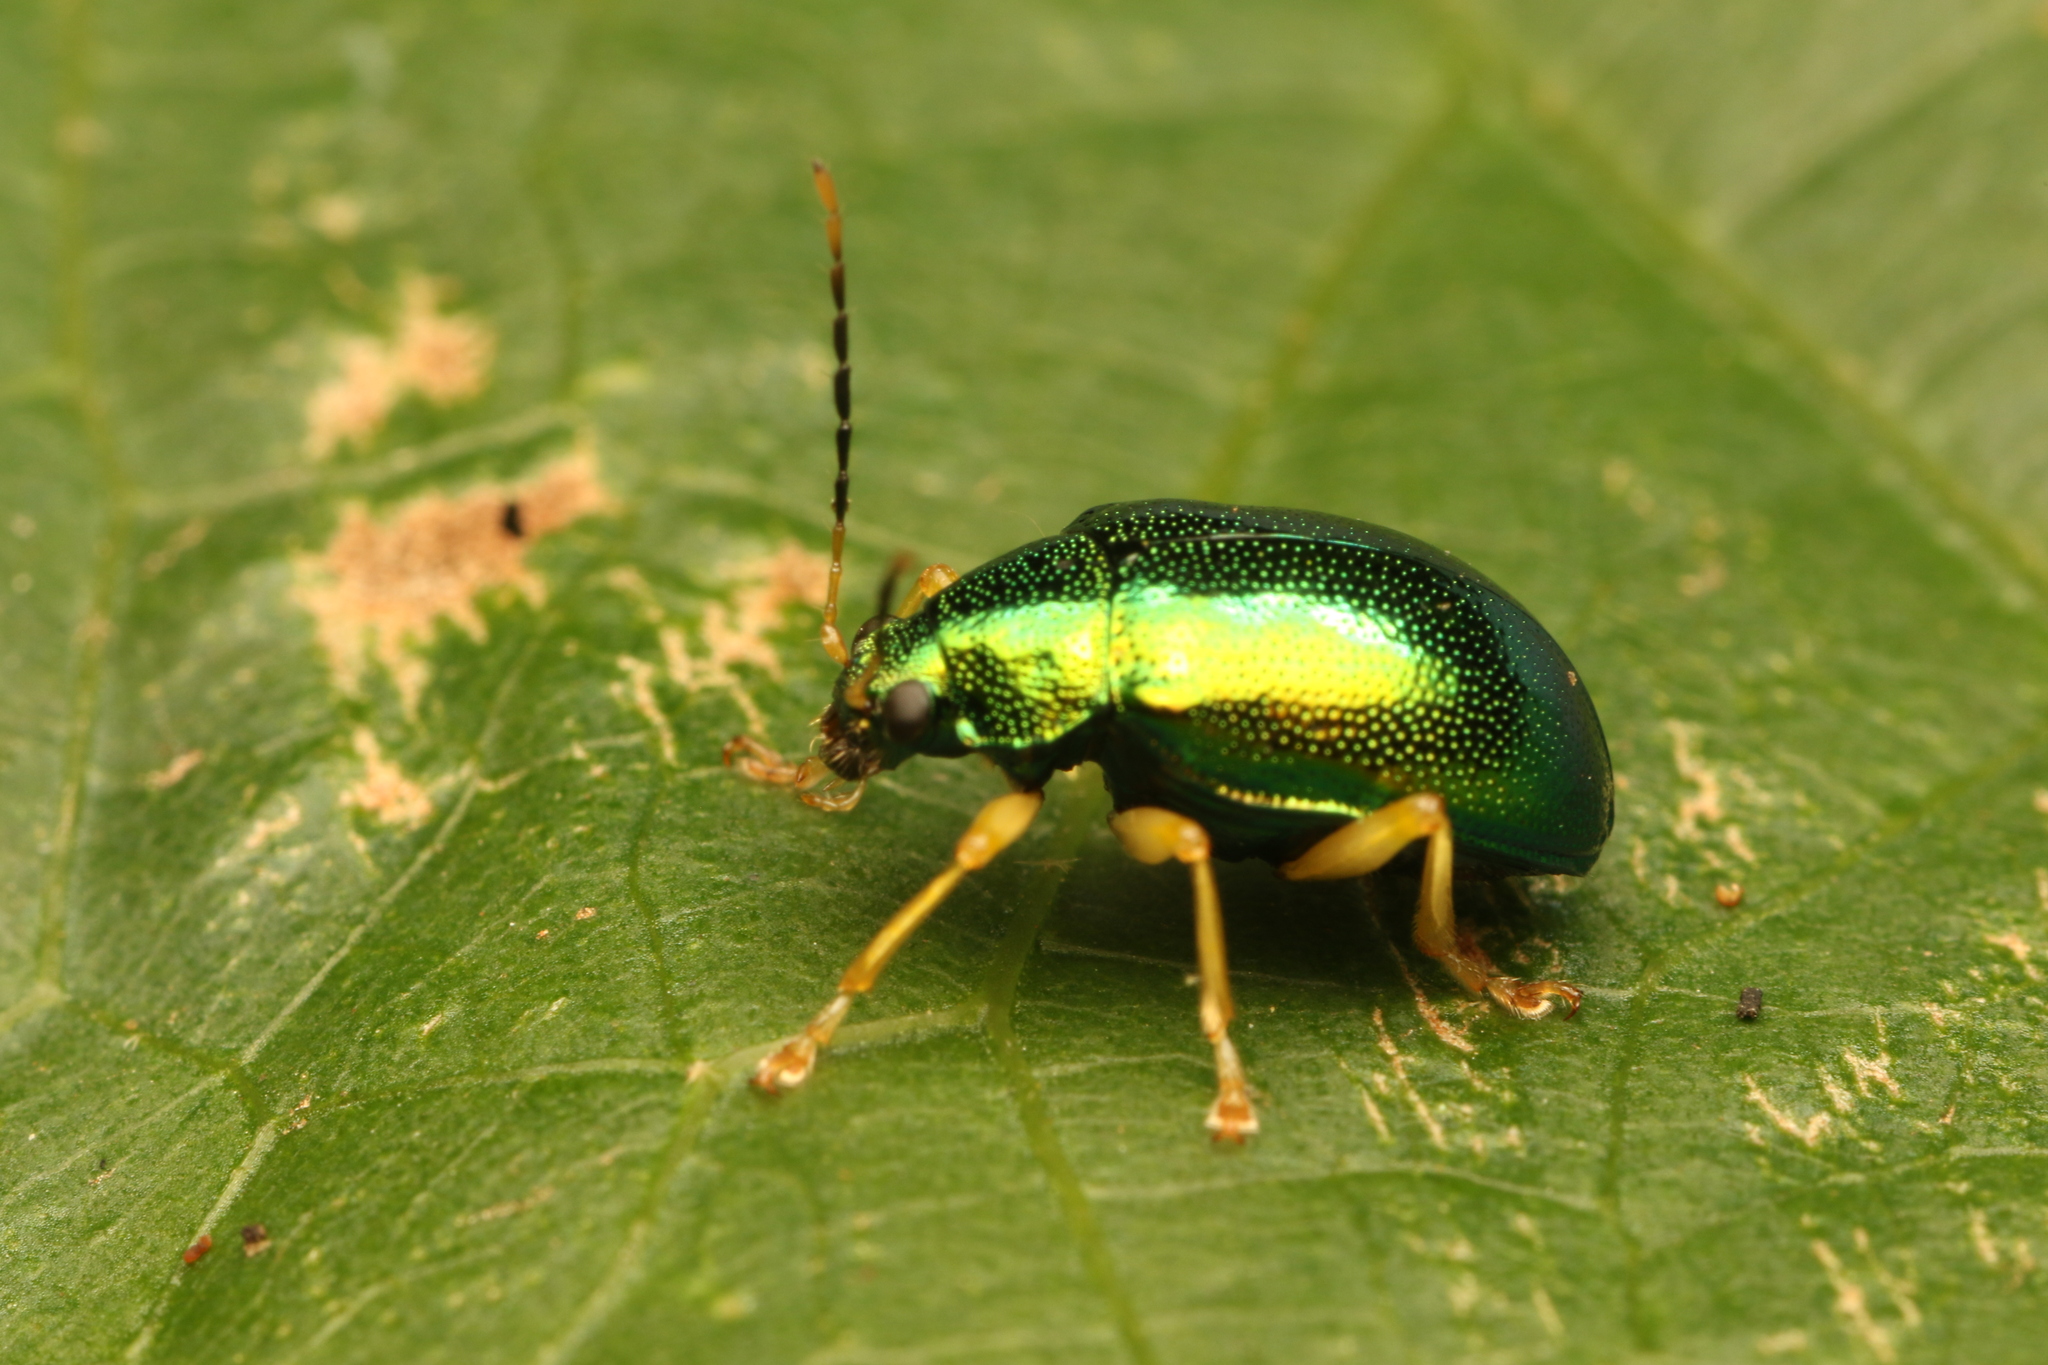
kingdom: Animalia
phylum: Arthropoda
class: Insecta
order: Coleoptera
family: Chrysomelidae
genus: Colaspis
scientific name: Colaspis
